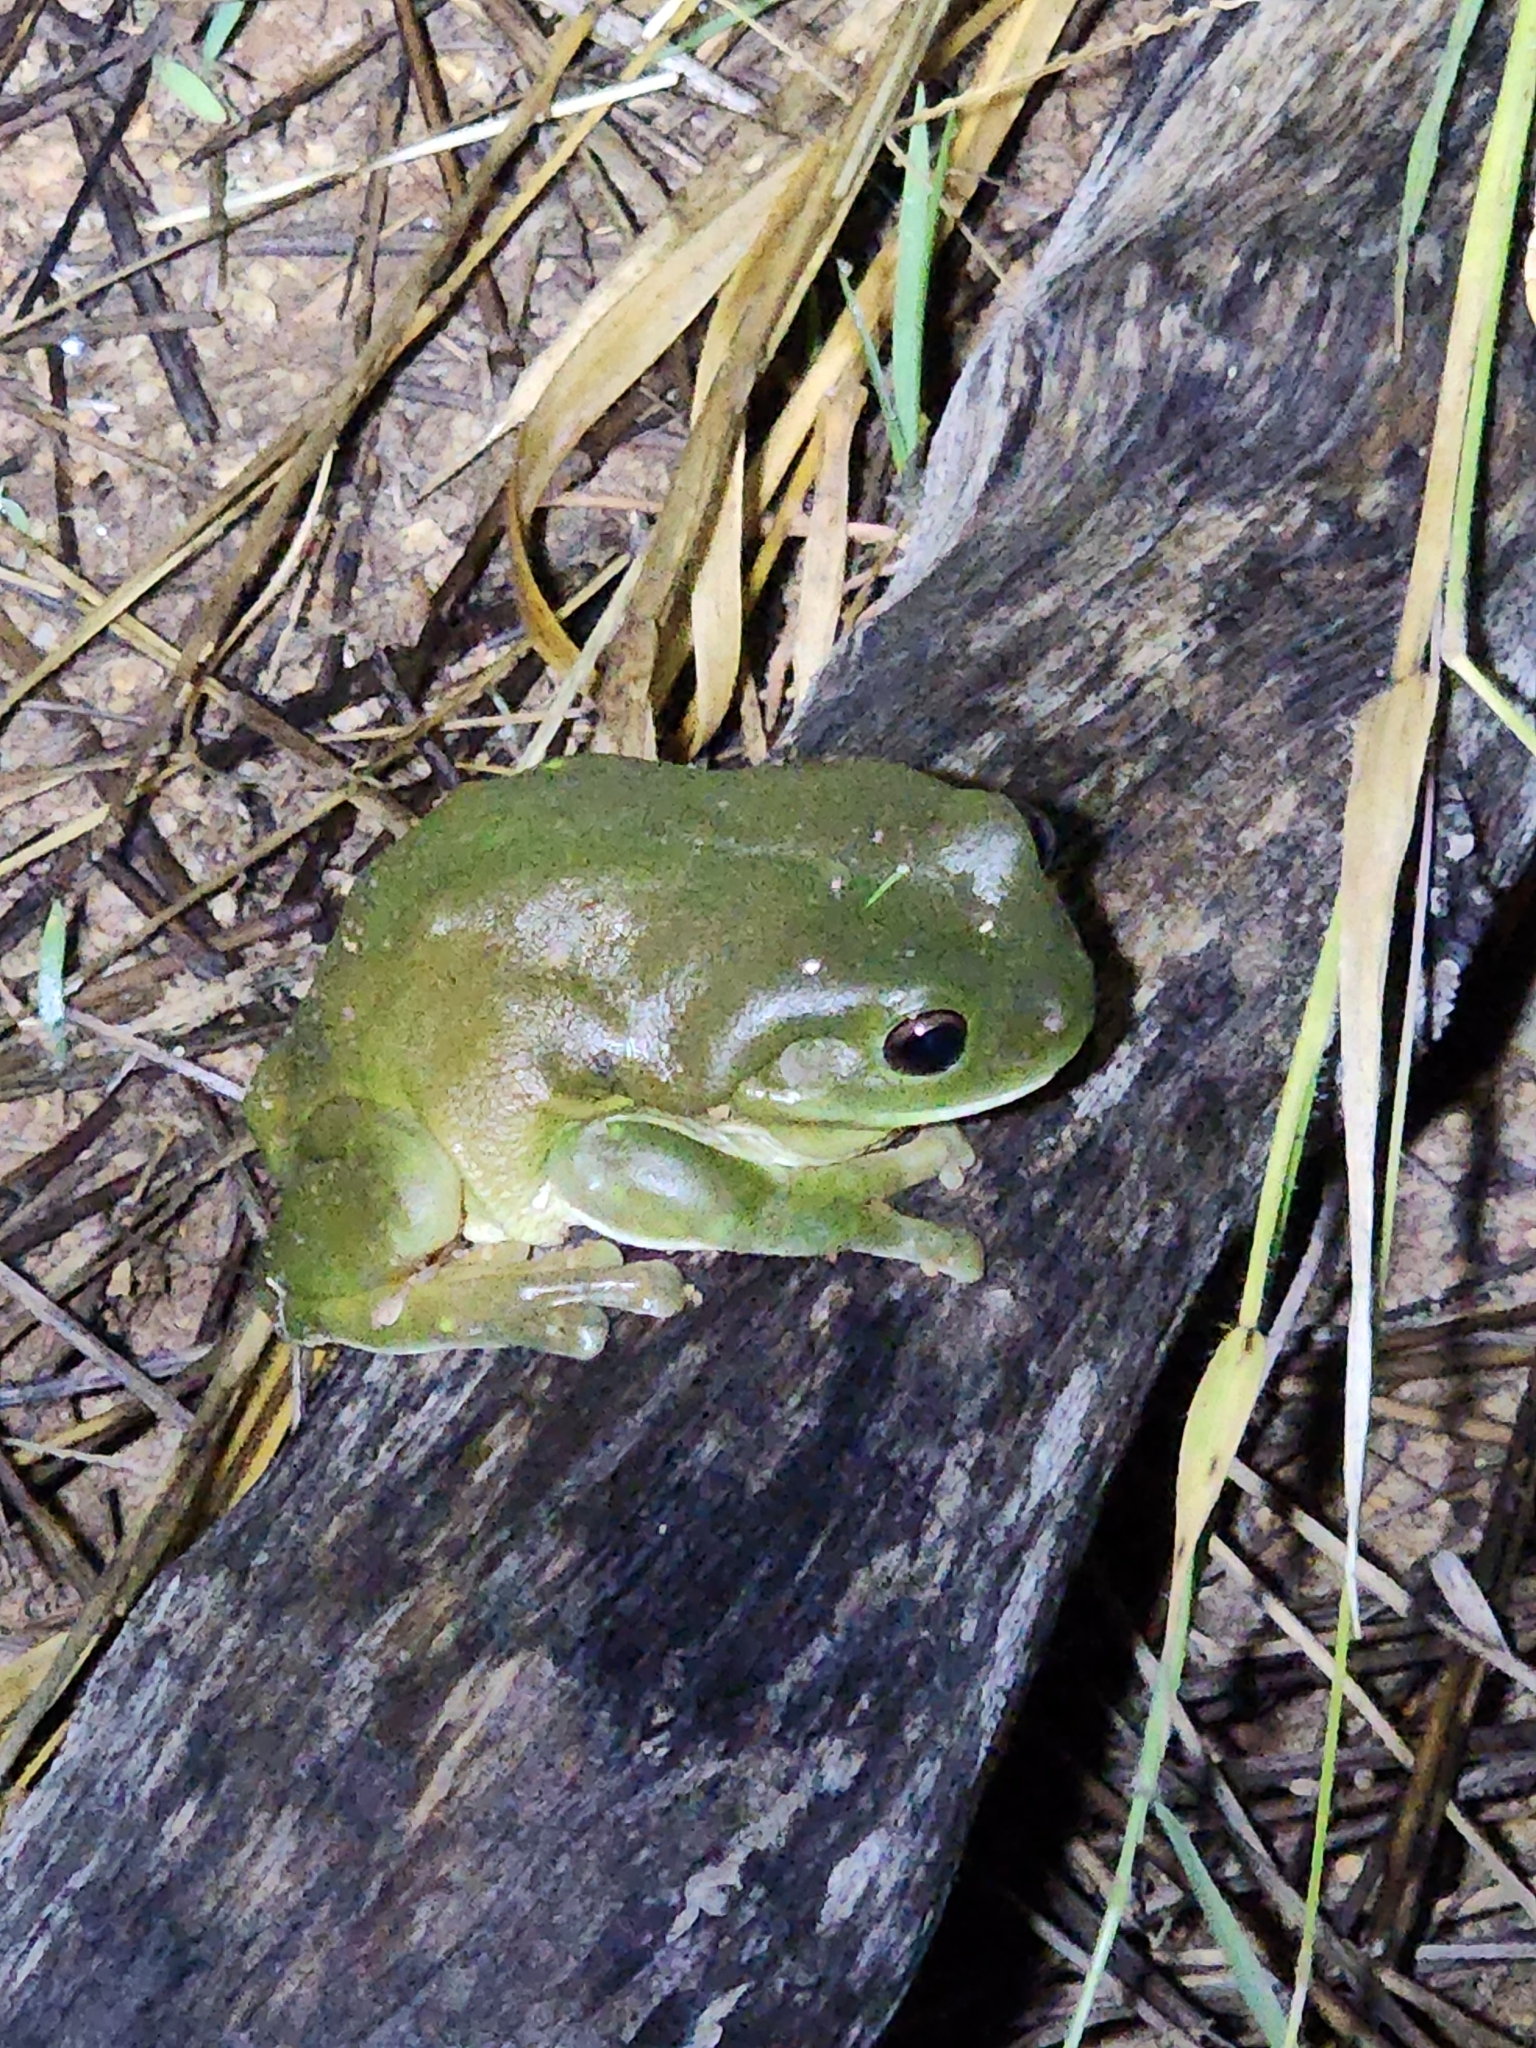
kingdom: Animalia
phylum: Chordata
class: Amphibia
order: Anura
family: Pelodryadidae
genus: Ranoidea
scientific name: Ranoidea caerulea
